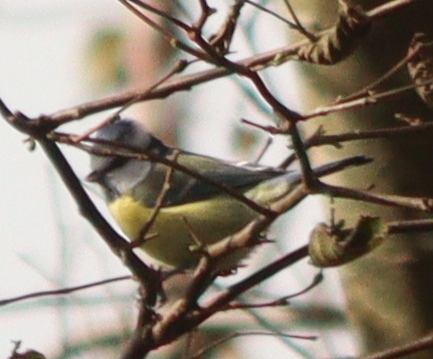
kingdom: Animalia
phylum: Chordata
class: Aves
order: Passeriformes
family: Paridae
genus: Cyanistes
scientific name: Cyanistes caeruleus
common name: Eurasian blue tit
